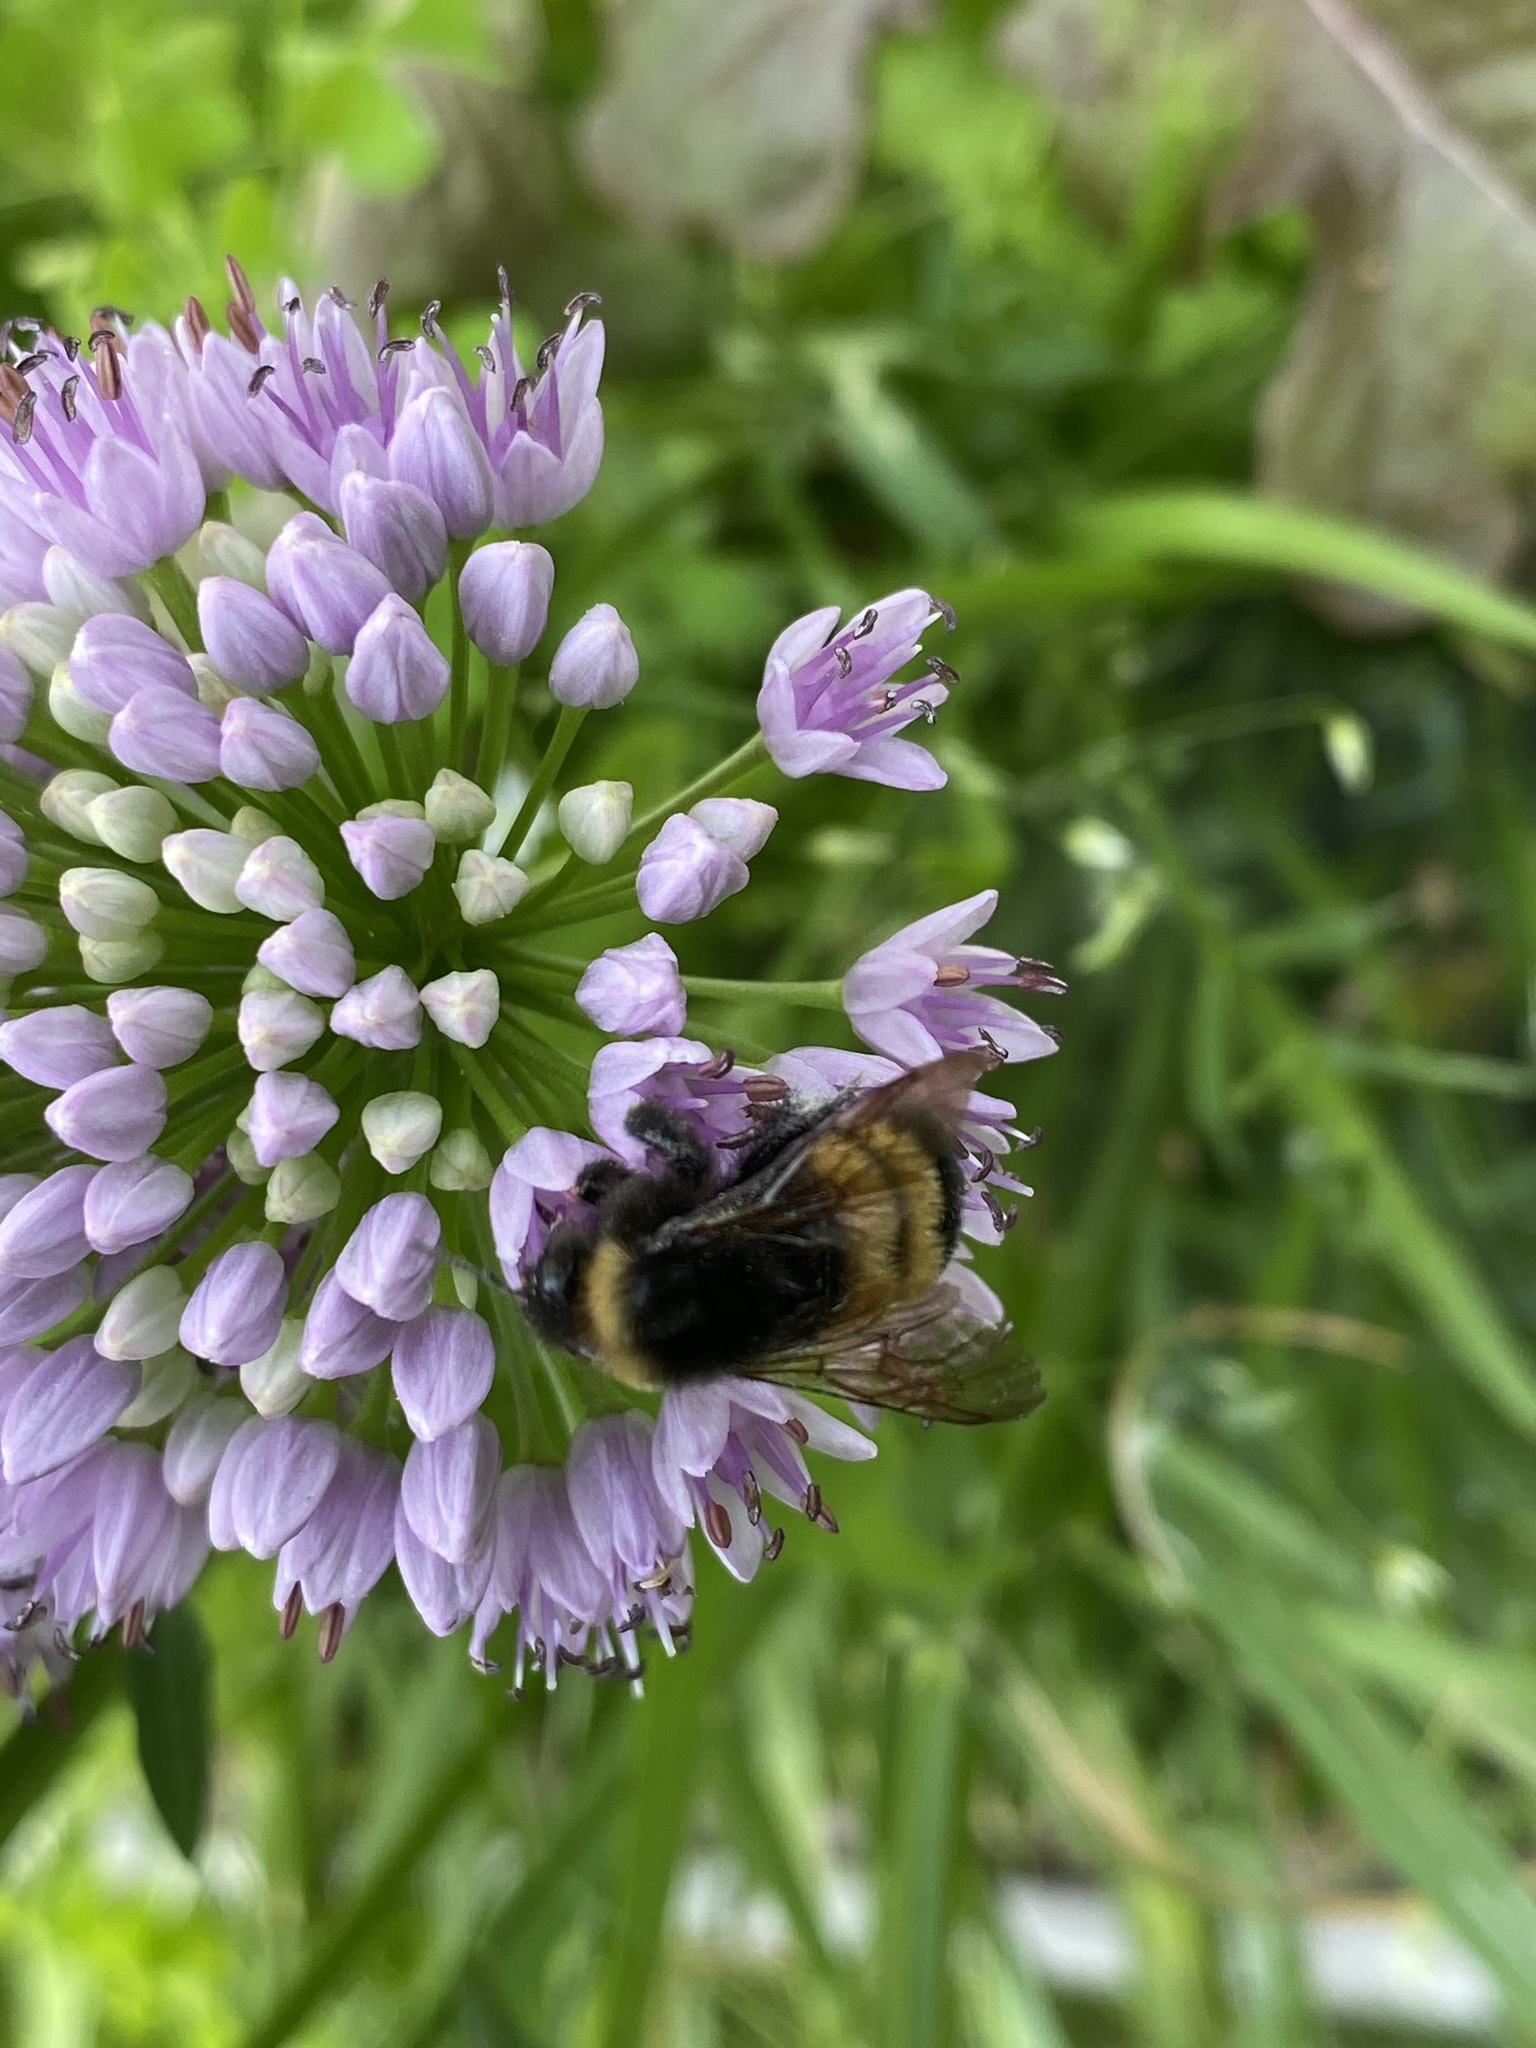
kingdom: Animalia
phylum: Arthropoda
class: Insecta
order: Hymenoptera
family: Apidae
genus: Bombus
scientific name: Bombus terricola
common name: Yellow-banded bumble bee
